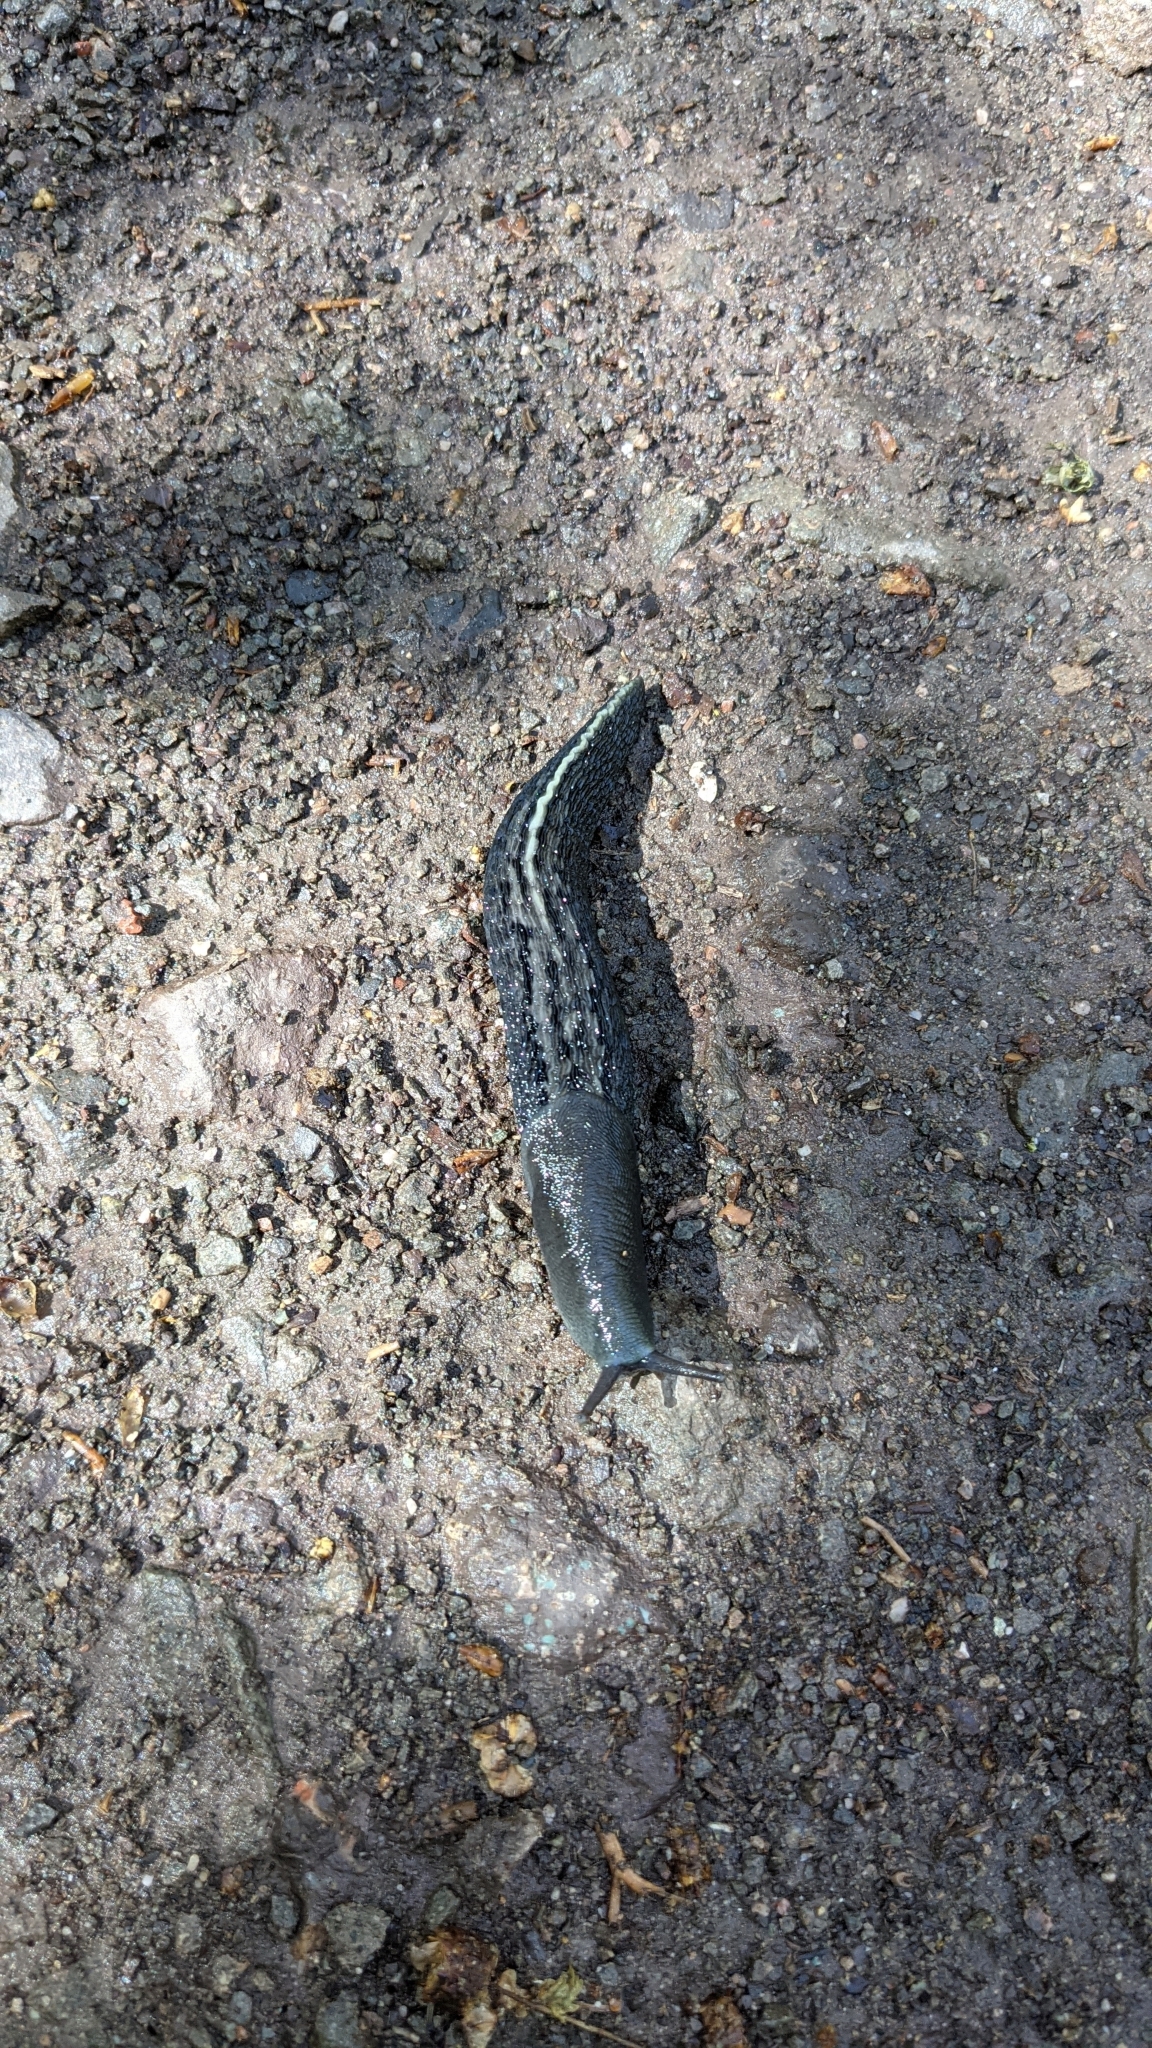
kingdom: Animalia
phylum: Mollusca
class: Gastropoda
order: Stylommatophora
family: Limacidae
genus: Limax
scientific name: Limax cinereoniger
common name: Ash-black slug
